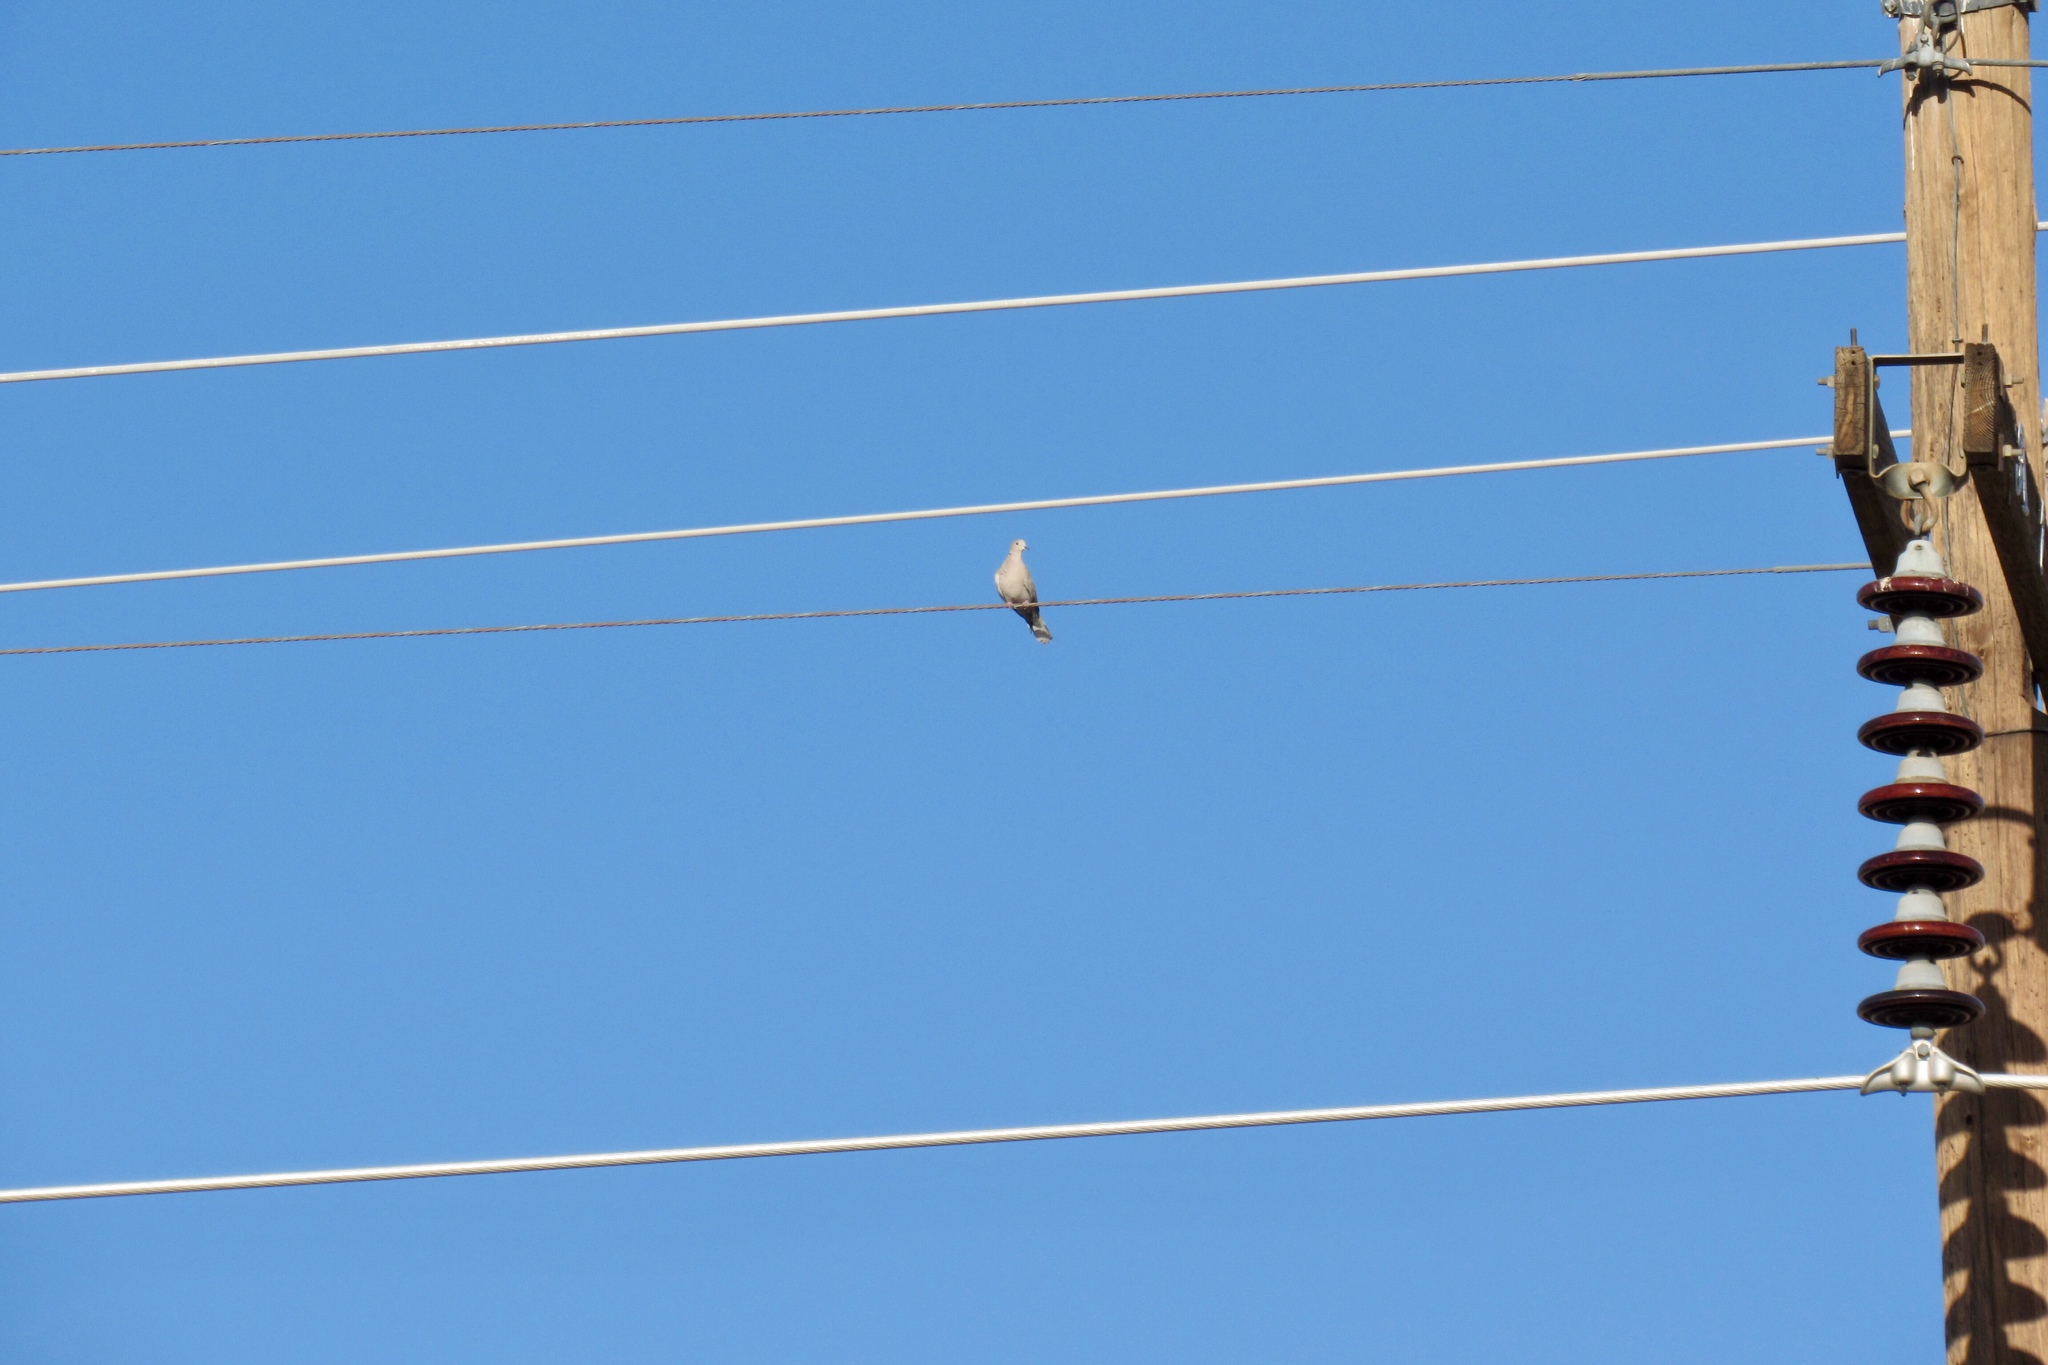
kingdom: Animalia
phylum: Chordata
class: Aves
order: Columbiformes
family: Columbidae
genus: Streptopelia
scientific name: Streptopelia decaocto
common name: Eurasian collared dove
